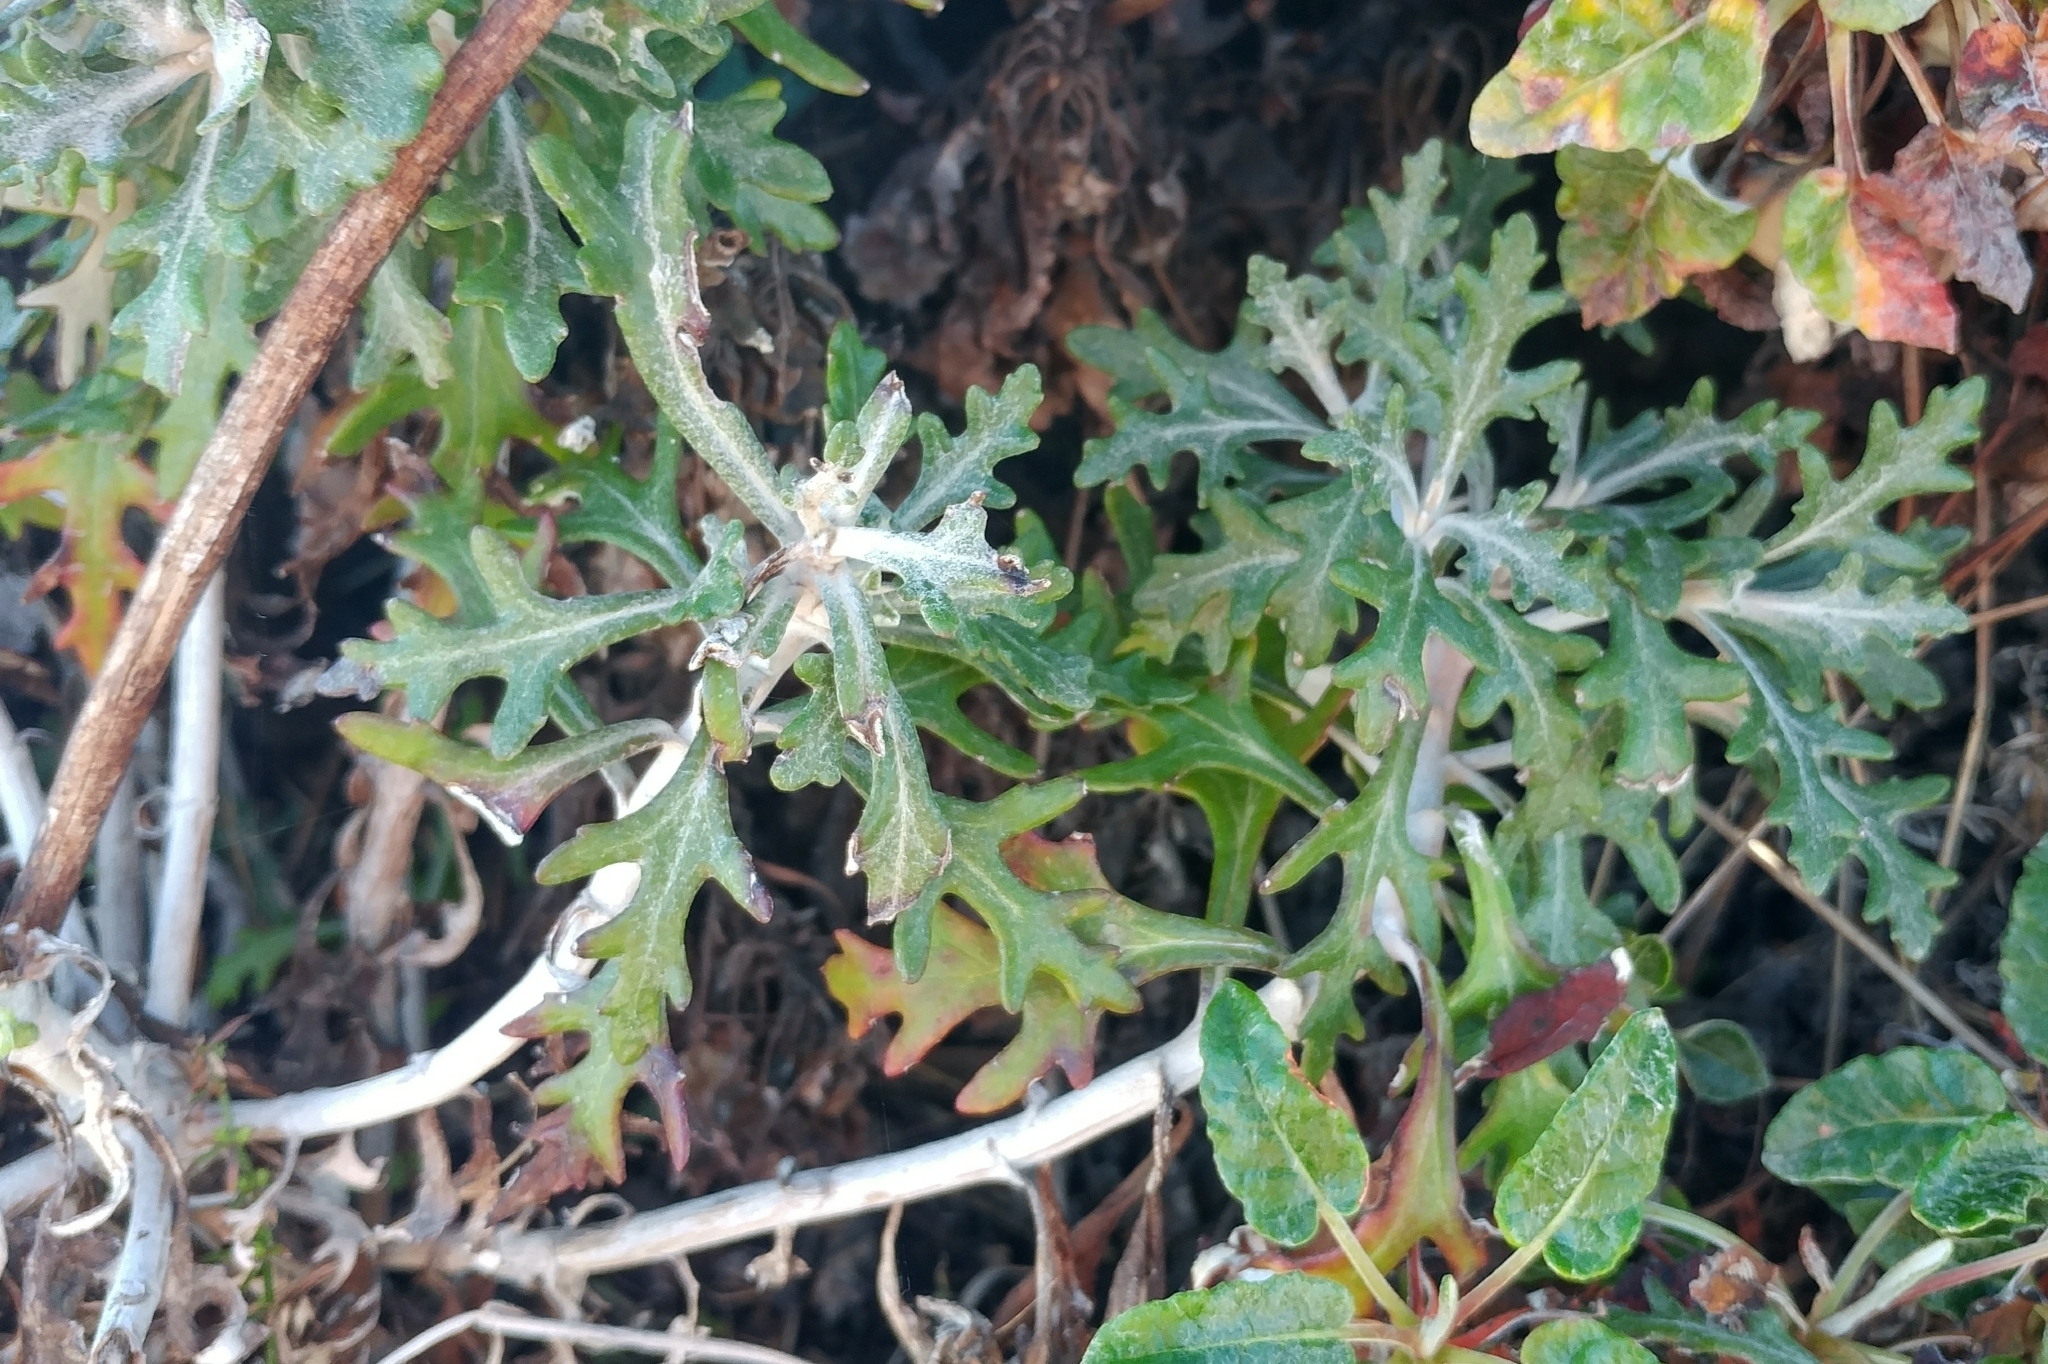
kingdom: Plantae
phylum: Tracheophyta
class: Magnoliopsida
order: Asterales
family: Asteraceae
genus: Eriophyllum
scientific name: Eriophyllum staechadifolium
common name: Lizardtail
